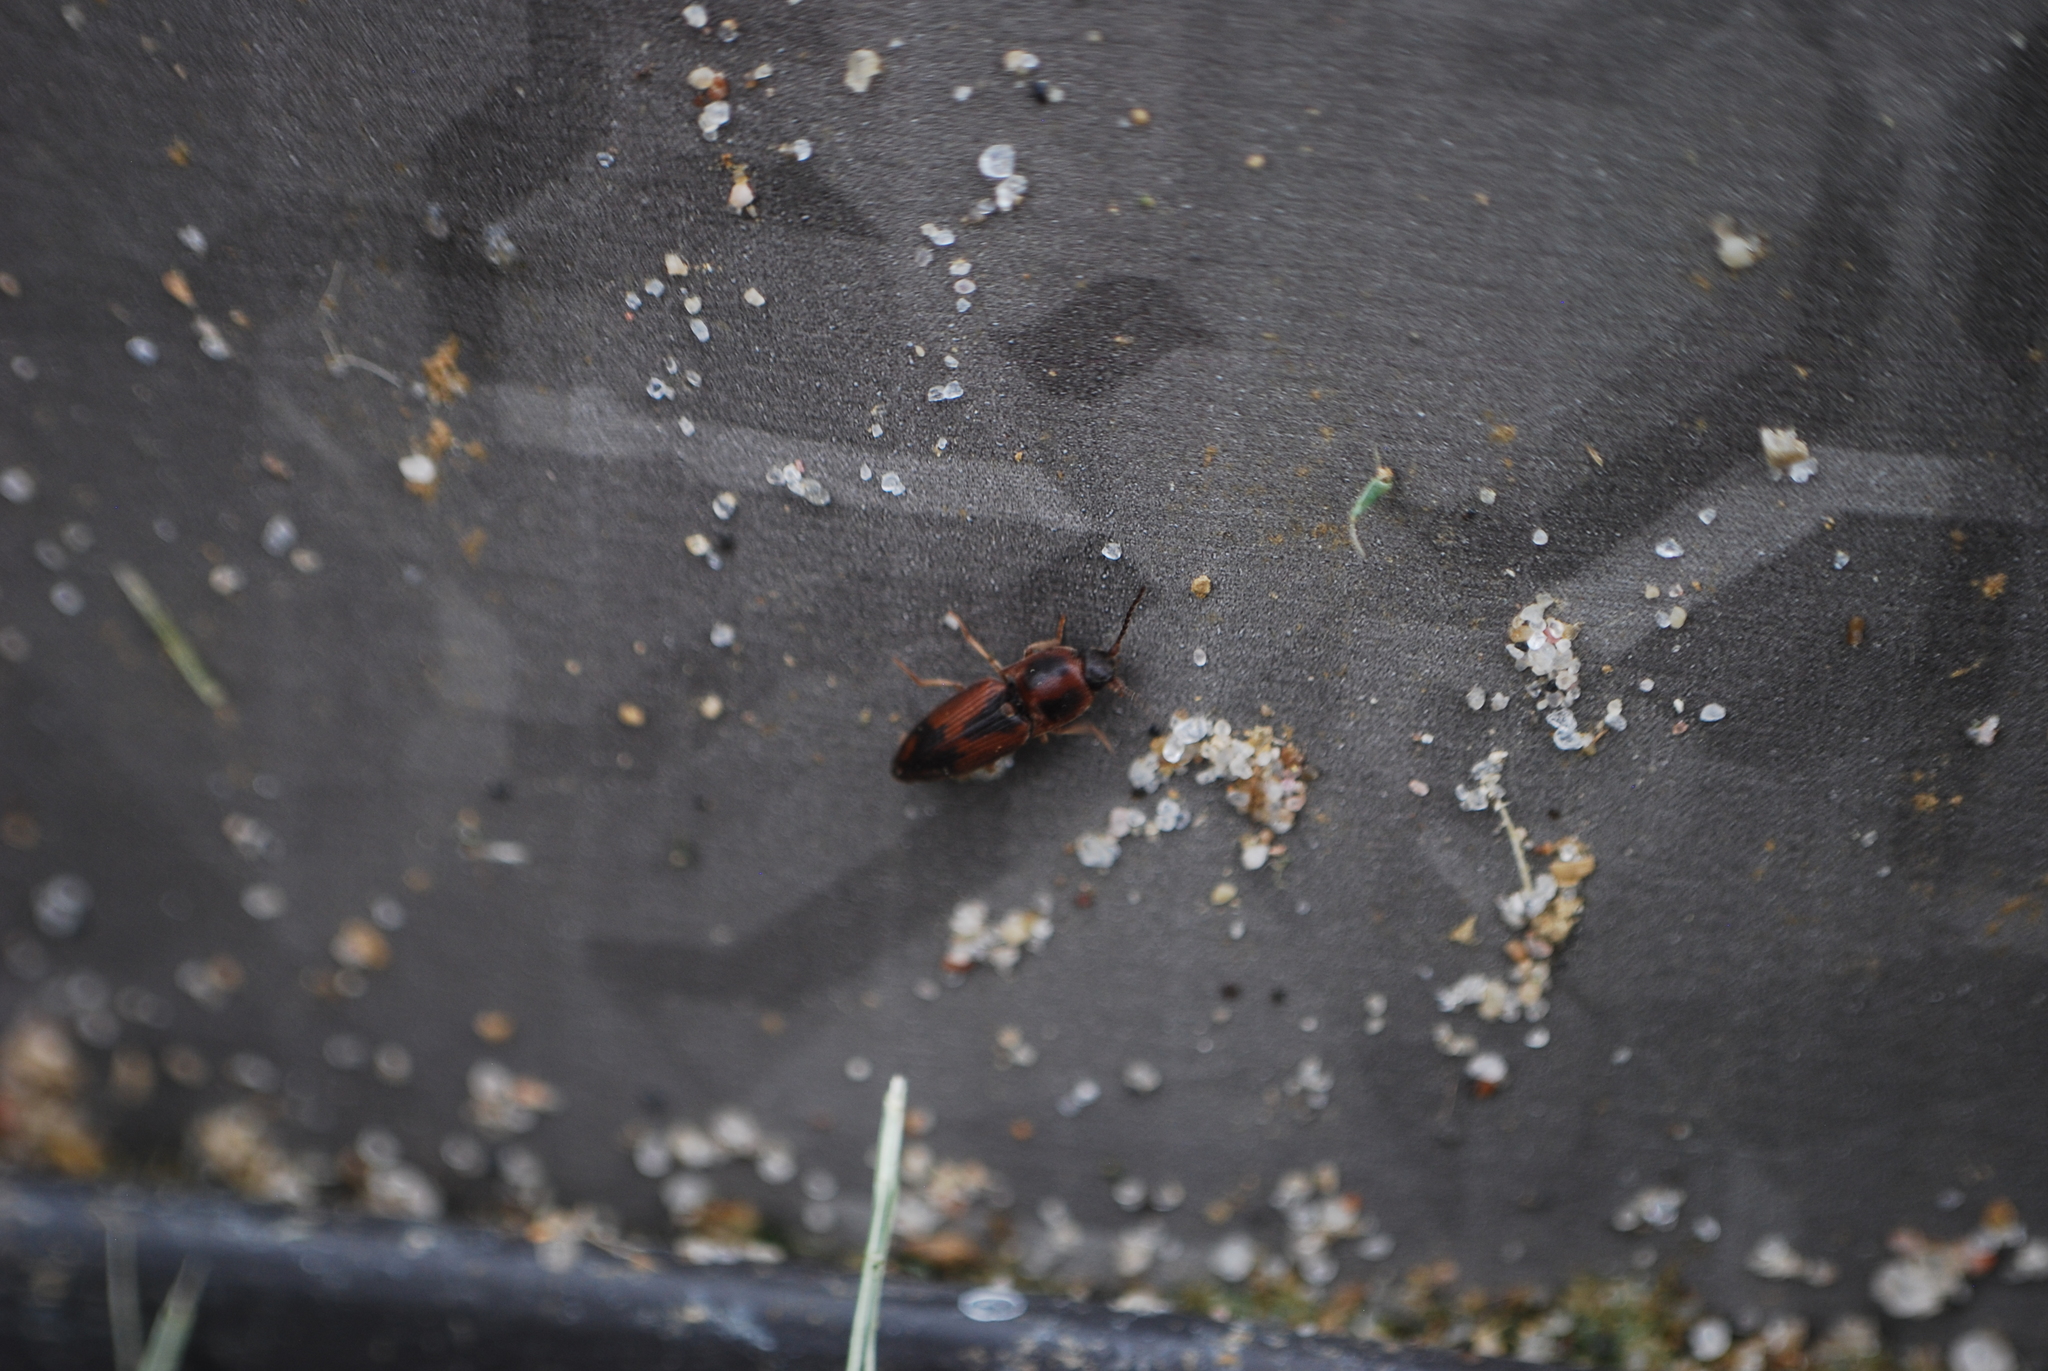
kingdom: Animalia
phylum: Arthropoda
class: Insecta
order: Coleoptera
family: Elateridae
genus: Monocrepidius
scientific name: Monocrepidius
